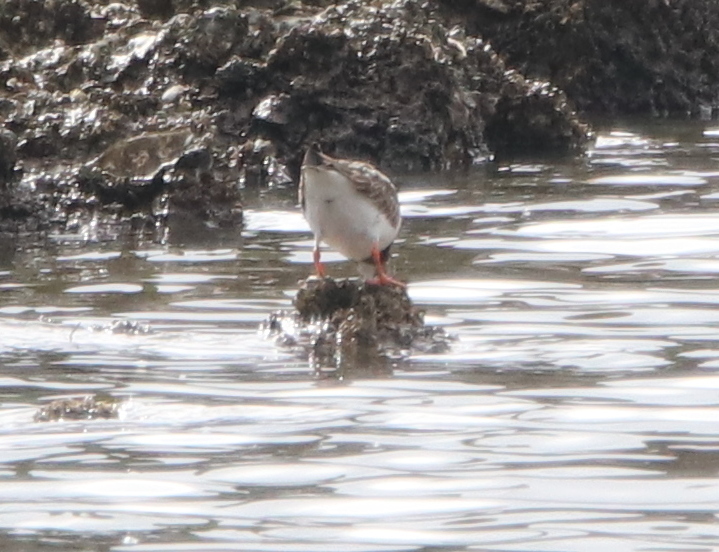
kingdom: Animalia
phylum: Chordata
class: Aves
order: Charadriiformes
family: Scolopacidae
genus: Arenaria
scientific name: Arenaria interpres
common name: Ruddy turnstone
